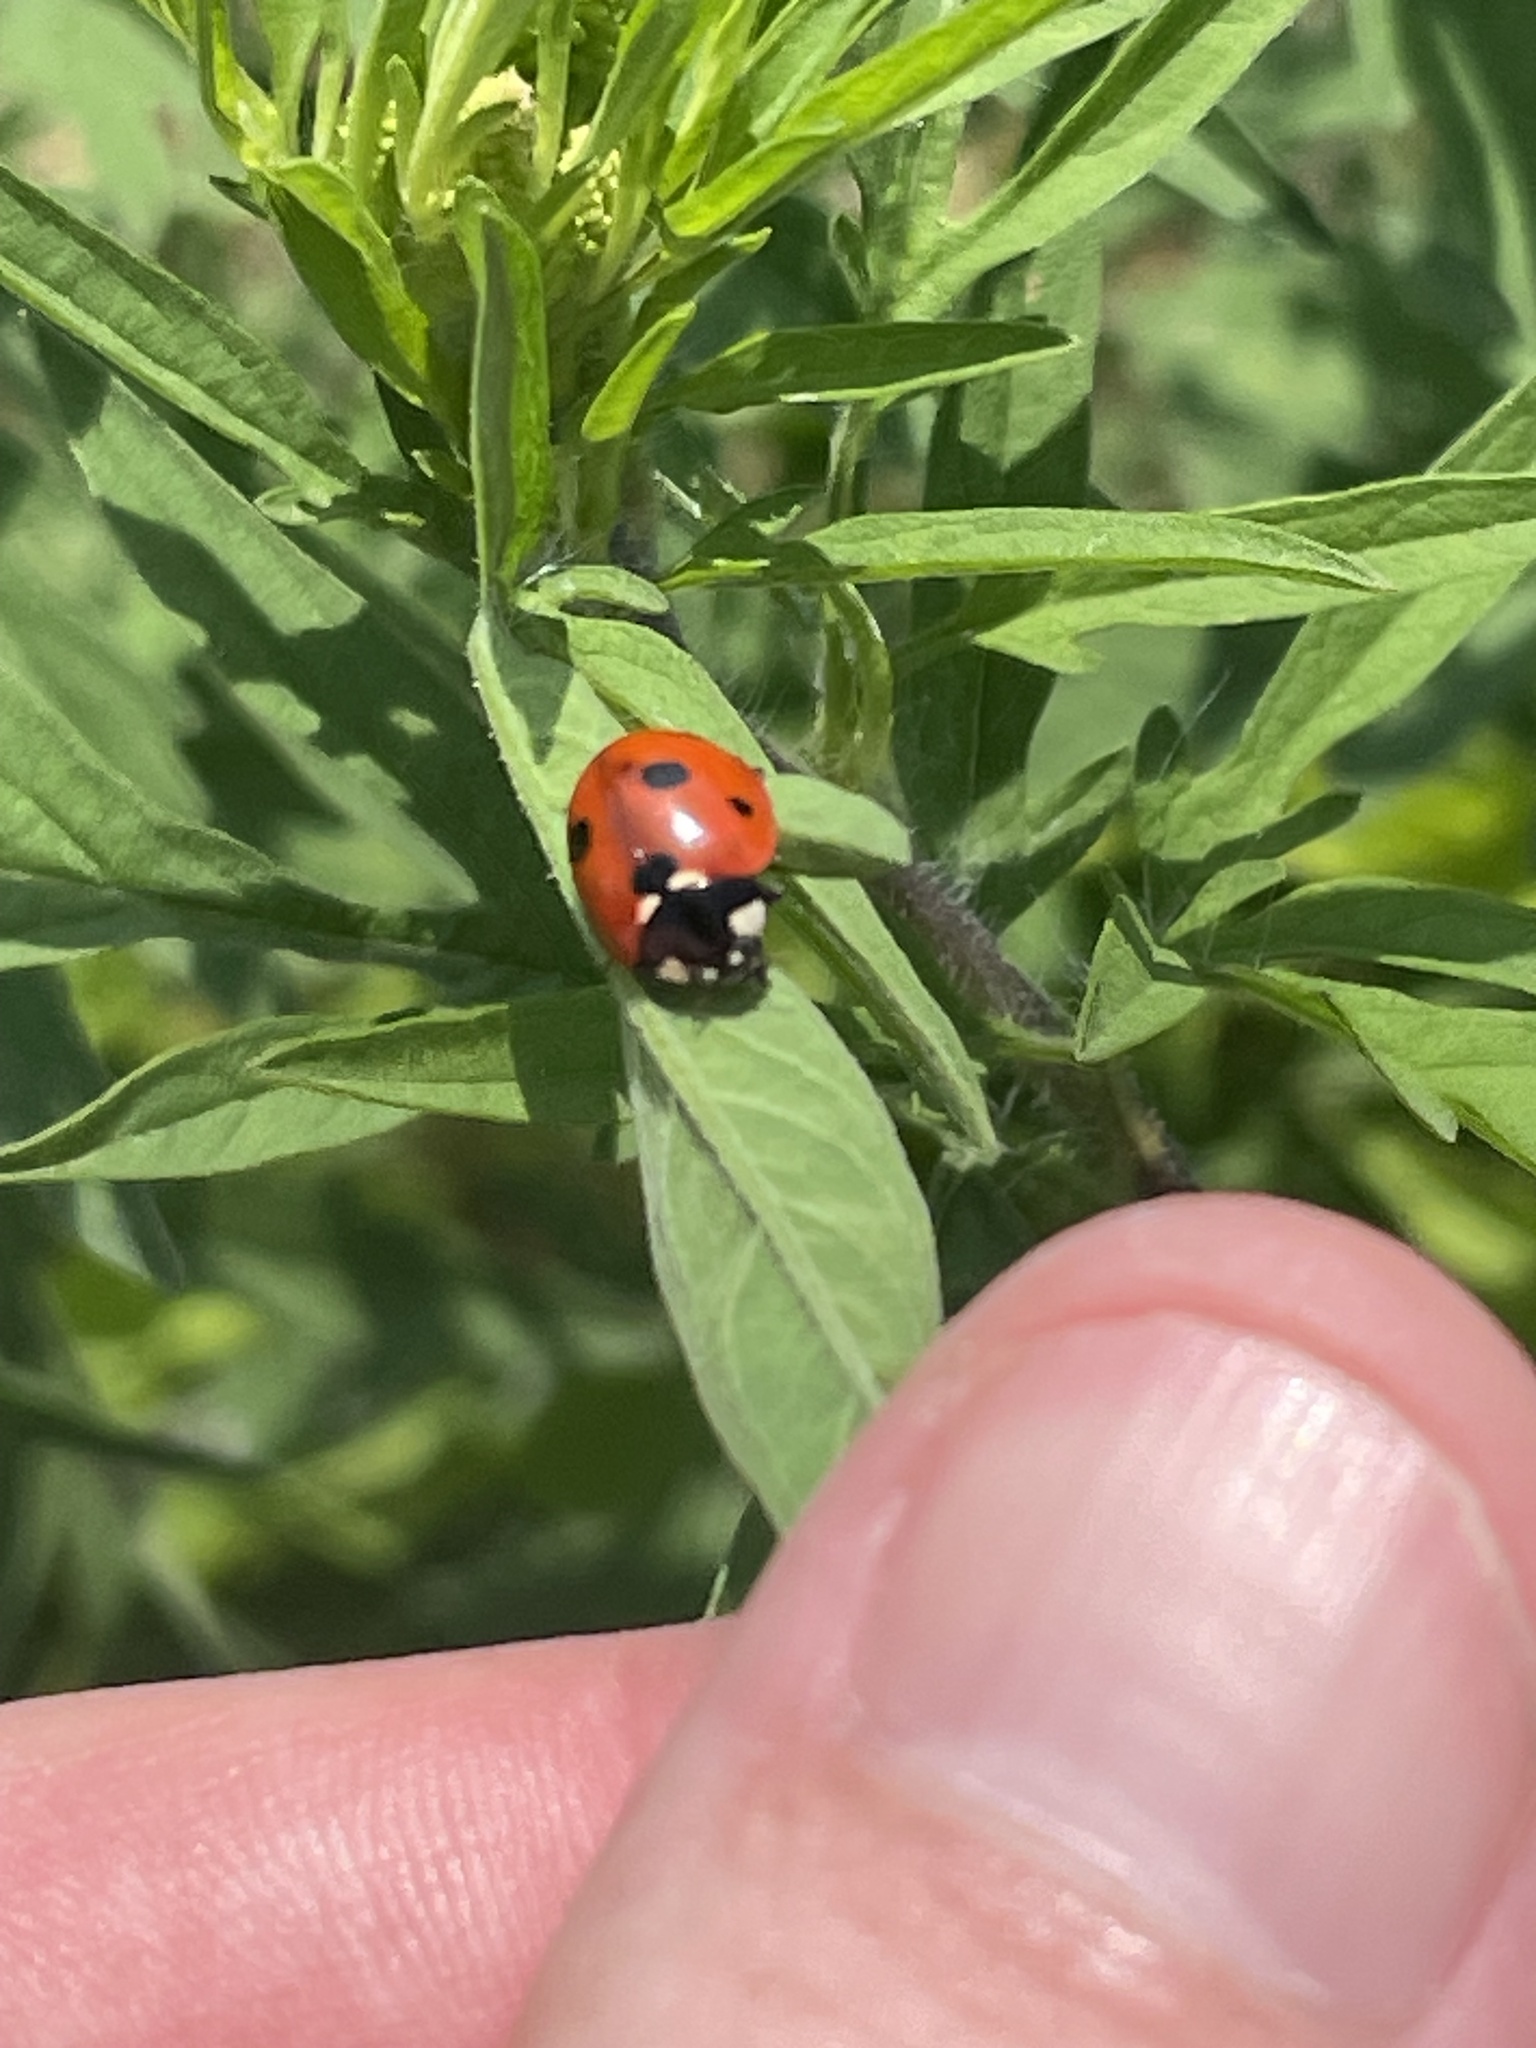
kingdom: Animalia
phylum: Arthropoda
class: Insecta
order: Coleoptera
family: Coccinellidae
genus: Coccinella
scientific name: Coccinella septempunctata
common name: Sevenspotted lady beetle
